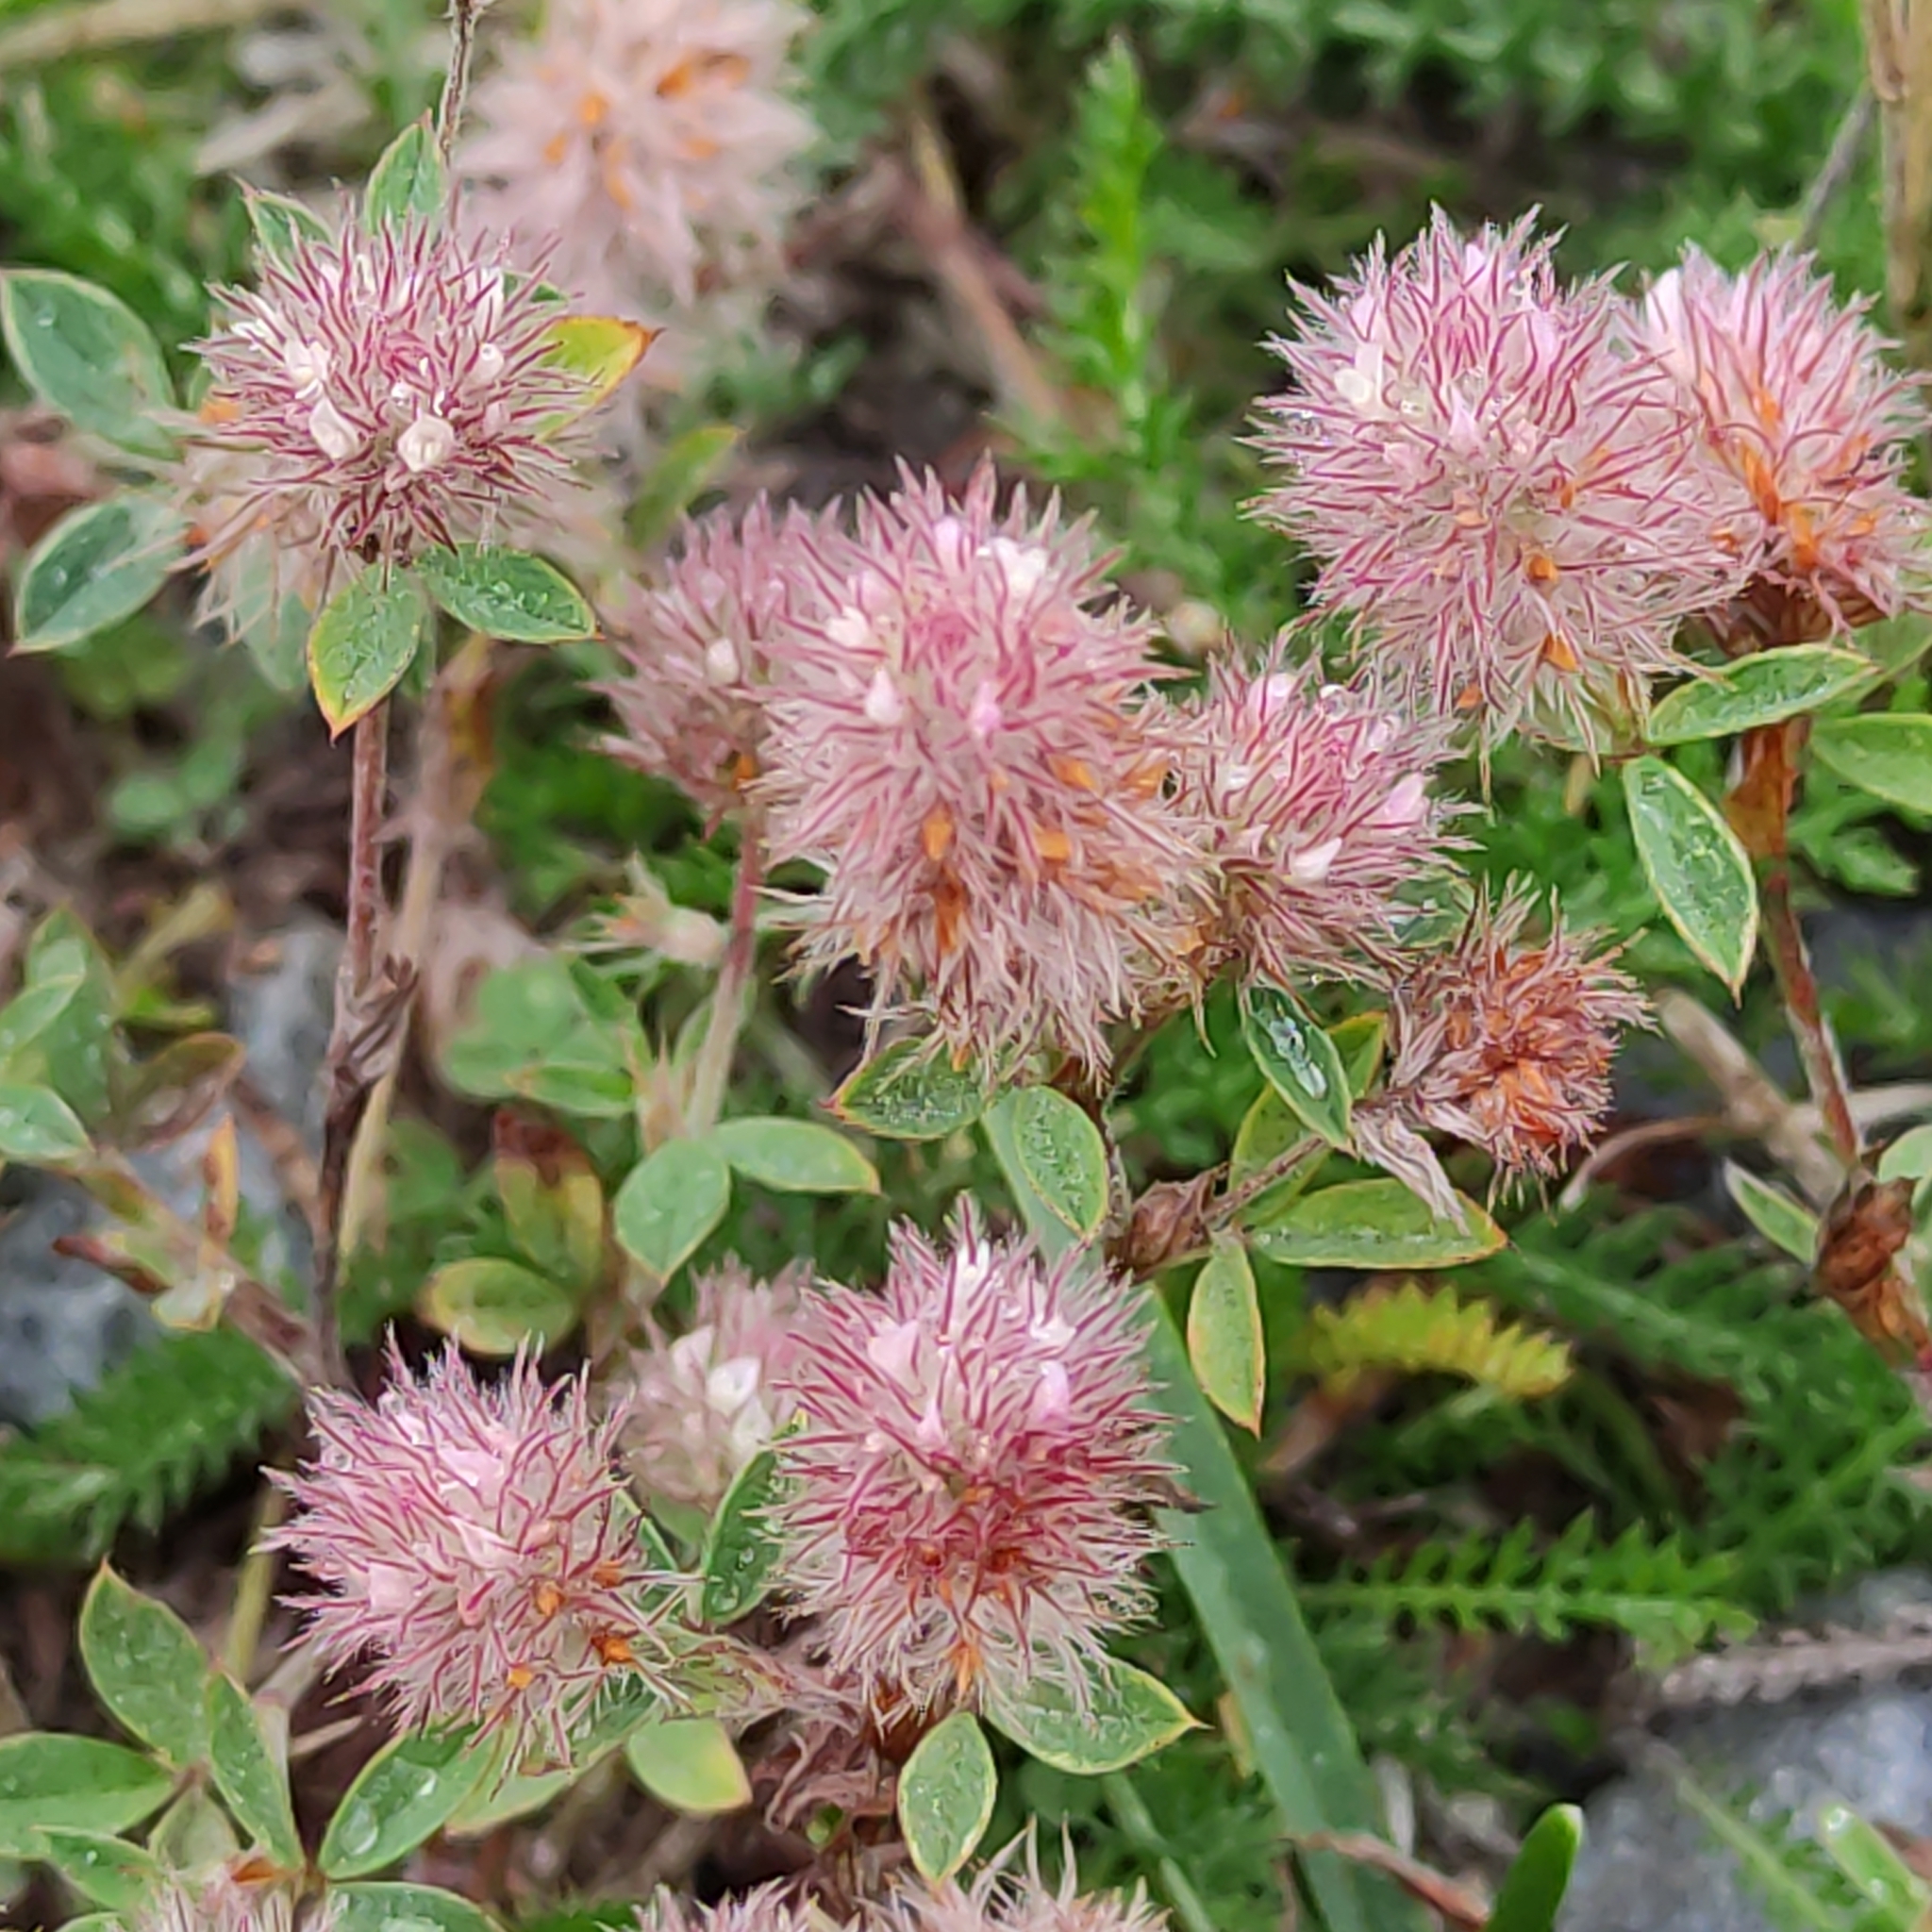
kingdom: Plantae
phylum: Tracheophyta
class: Magnoliopsida
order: Fabales
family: Fabaceae
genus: Trifolium
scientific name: Trifolium arvense
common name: Hare's-foot clover
